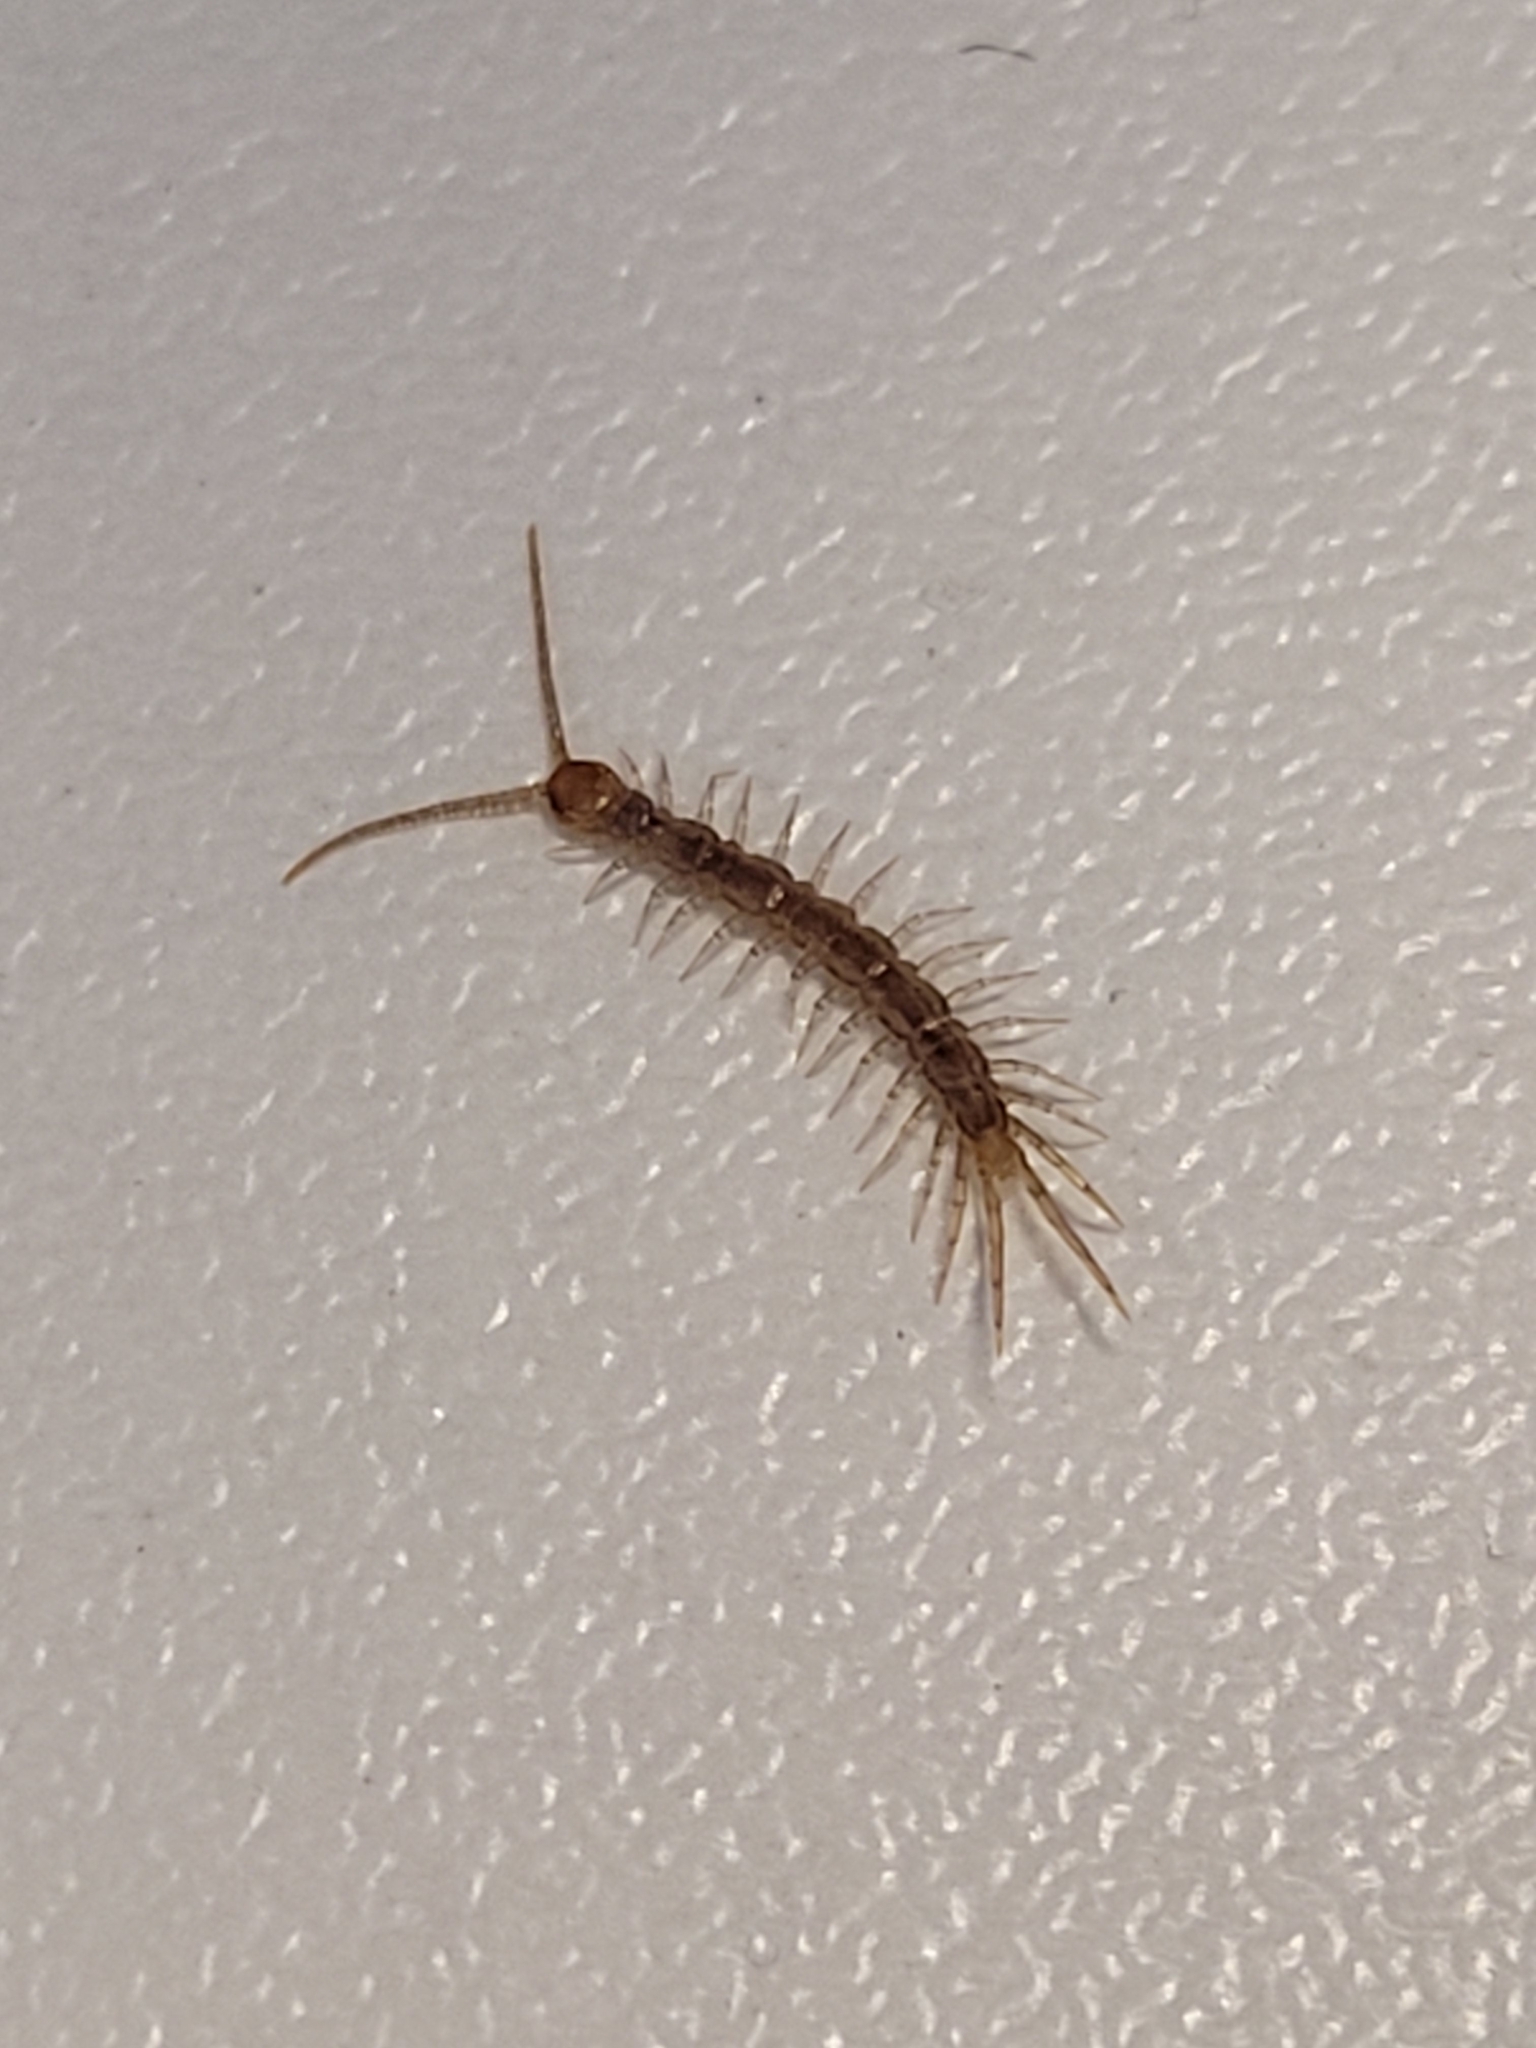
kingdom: Animalia
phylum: Arthropoda
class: Chilopoda
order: Lithobiomorpha
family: Lithobiidae
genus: Lithobius
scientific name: Lithobius melanops
